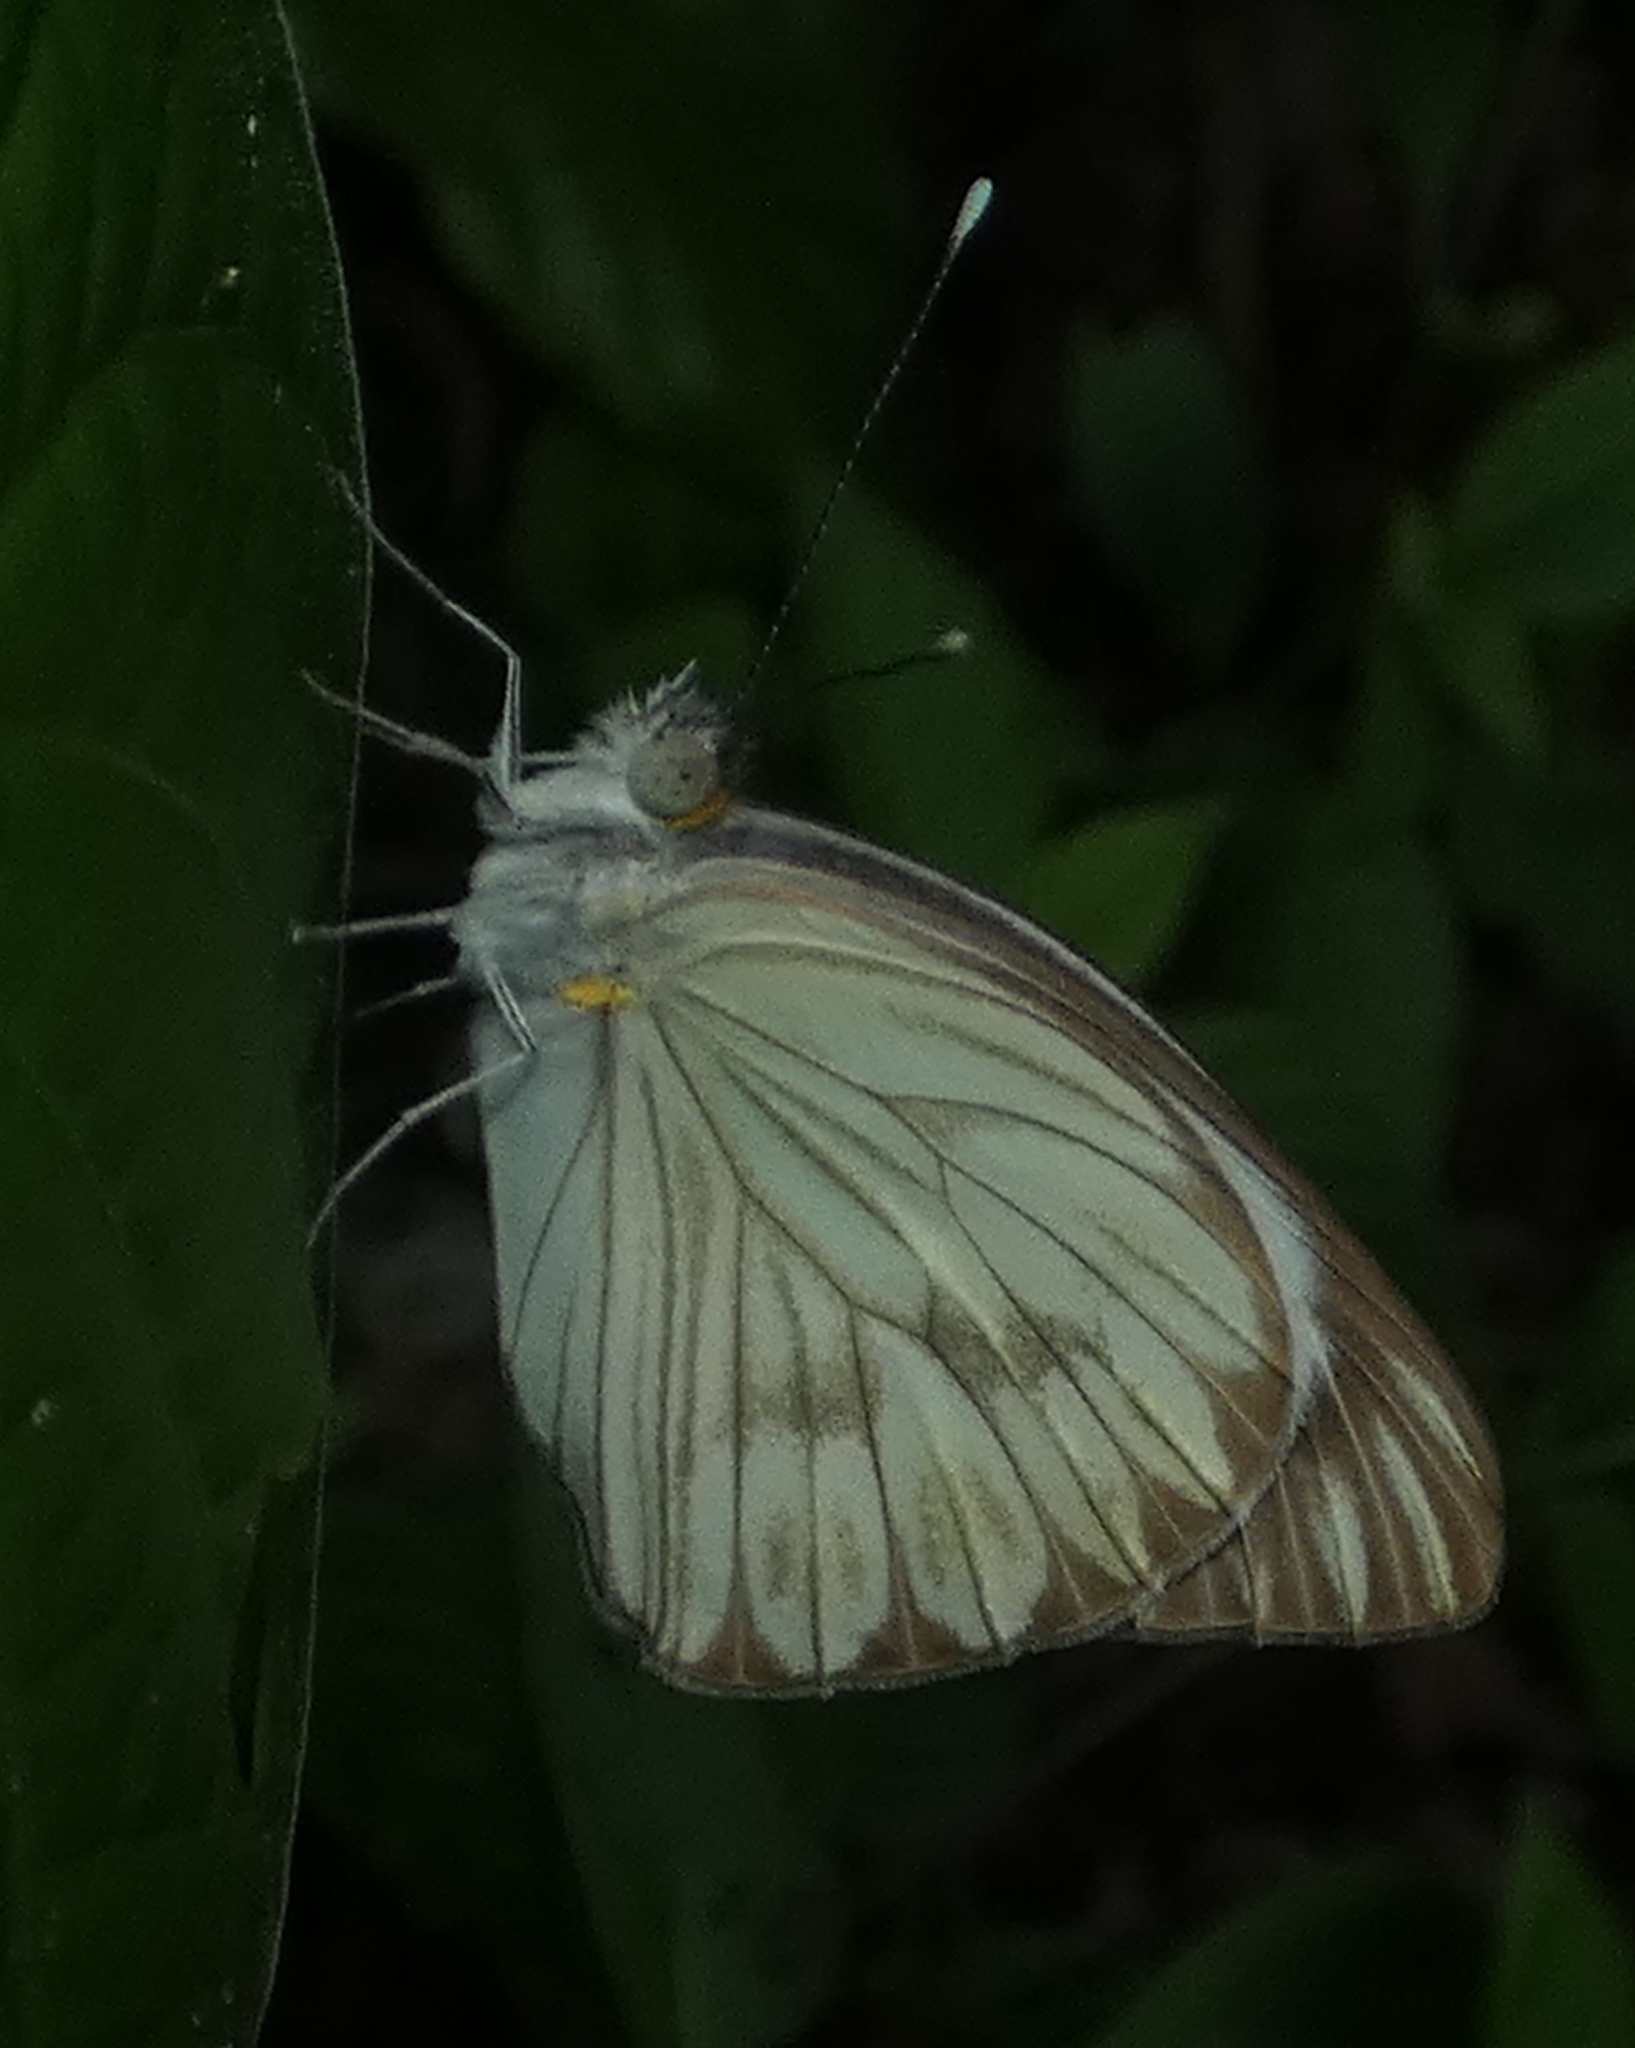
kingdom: Animalia
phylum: Arthropoda
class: Insecta
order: Lepidoptera
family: Pieridae
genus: Ascia
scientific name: Ascia monuste
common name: Great southern white
